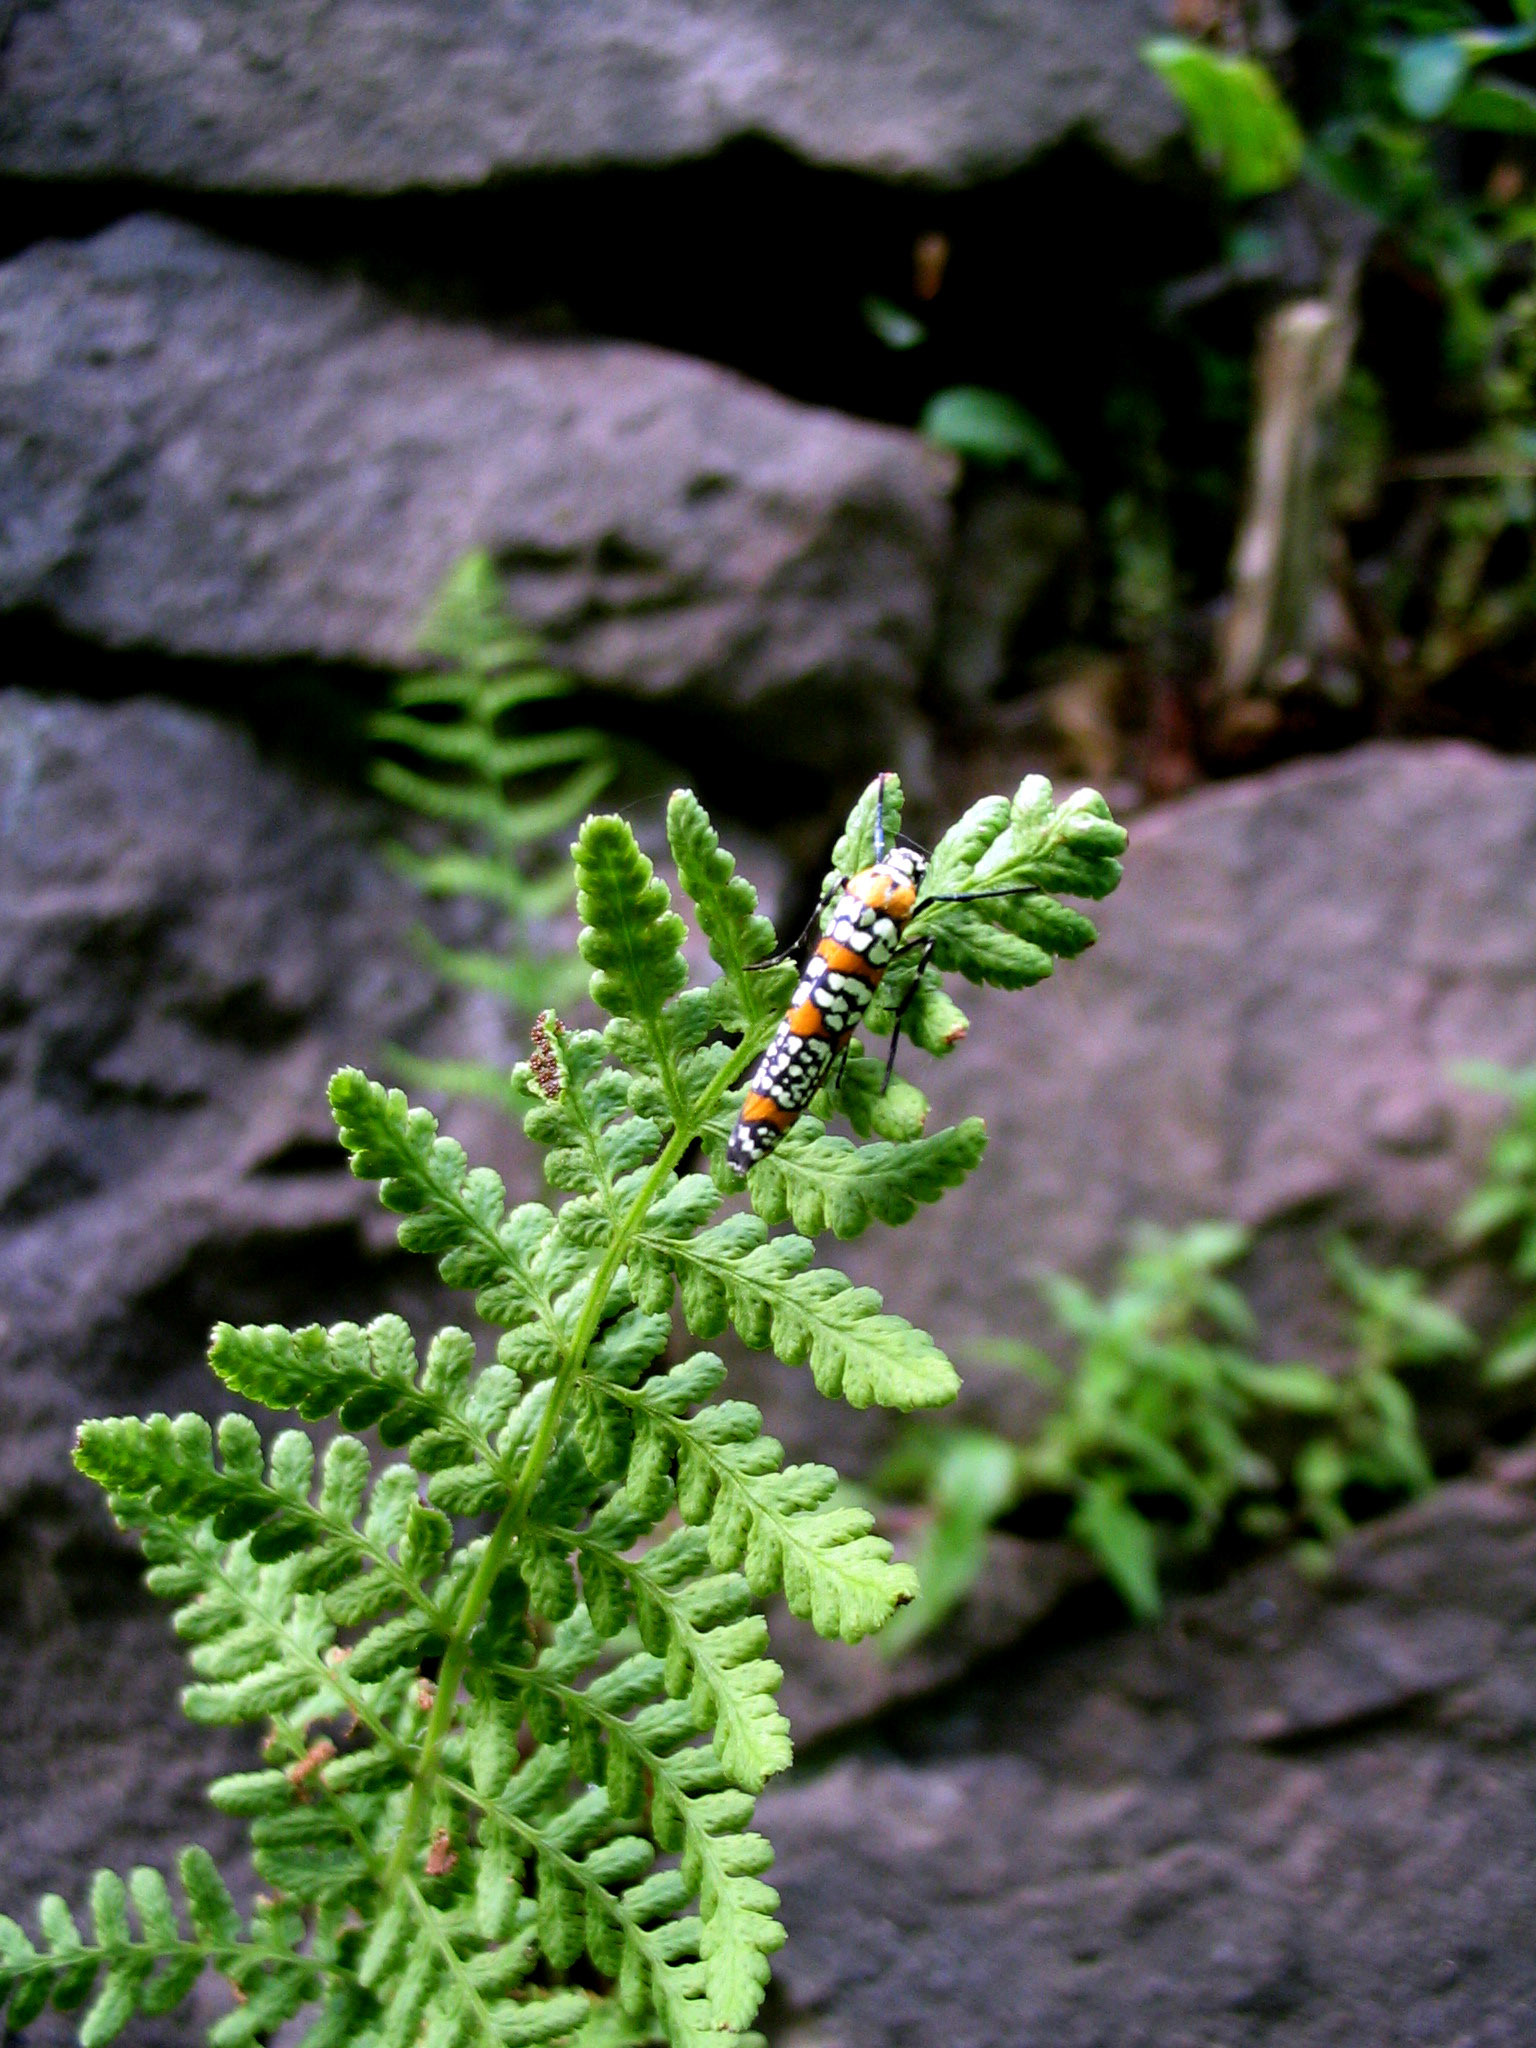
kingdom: Animalia
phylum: Arthropoda
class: Insecta
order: Lepidoptera
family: Attevidae
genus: Atteva
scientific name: Atteva punctella
